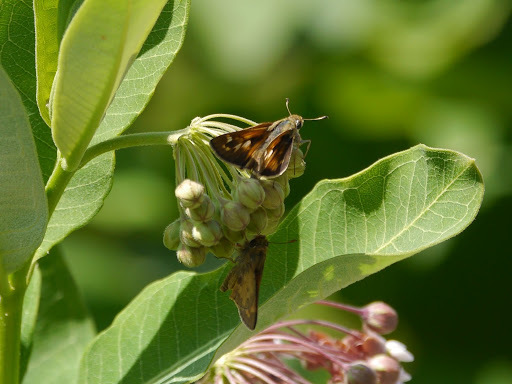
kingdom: Animalia
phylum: Arthropoda
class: Insecta
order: Lepidoptera
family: Hesperiidae
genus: Atalopedes
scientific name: Atalopedes
